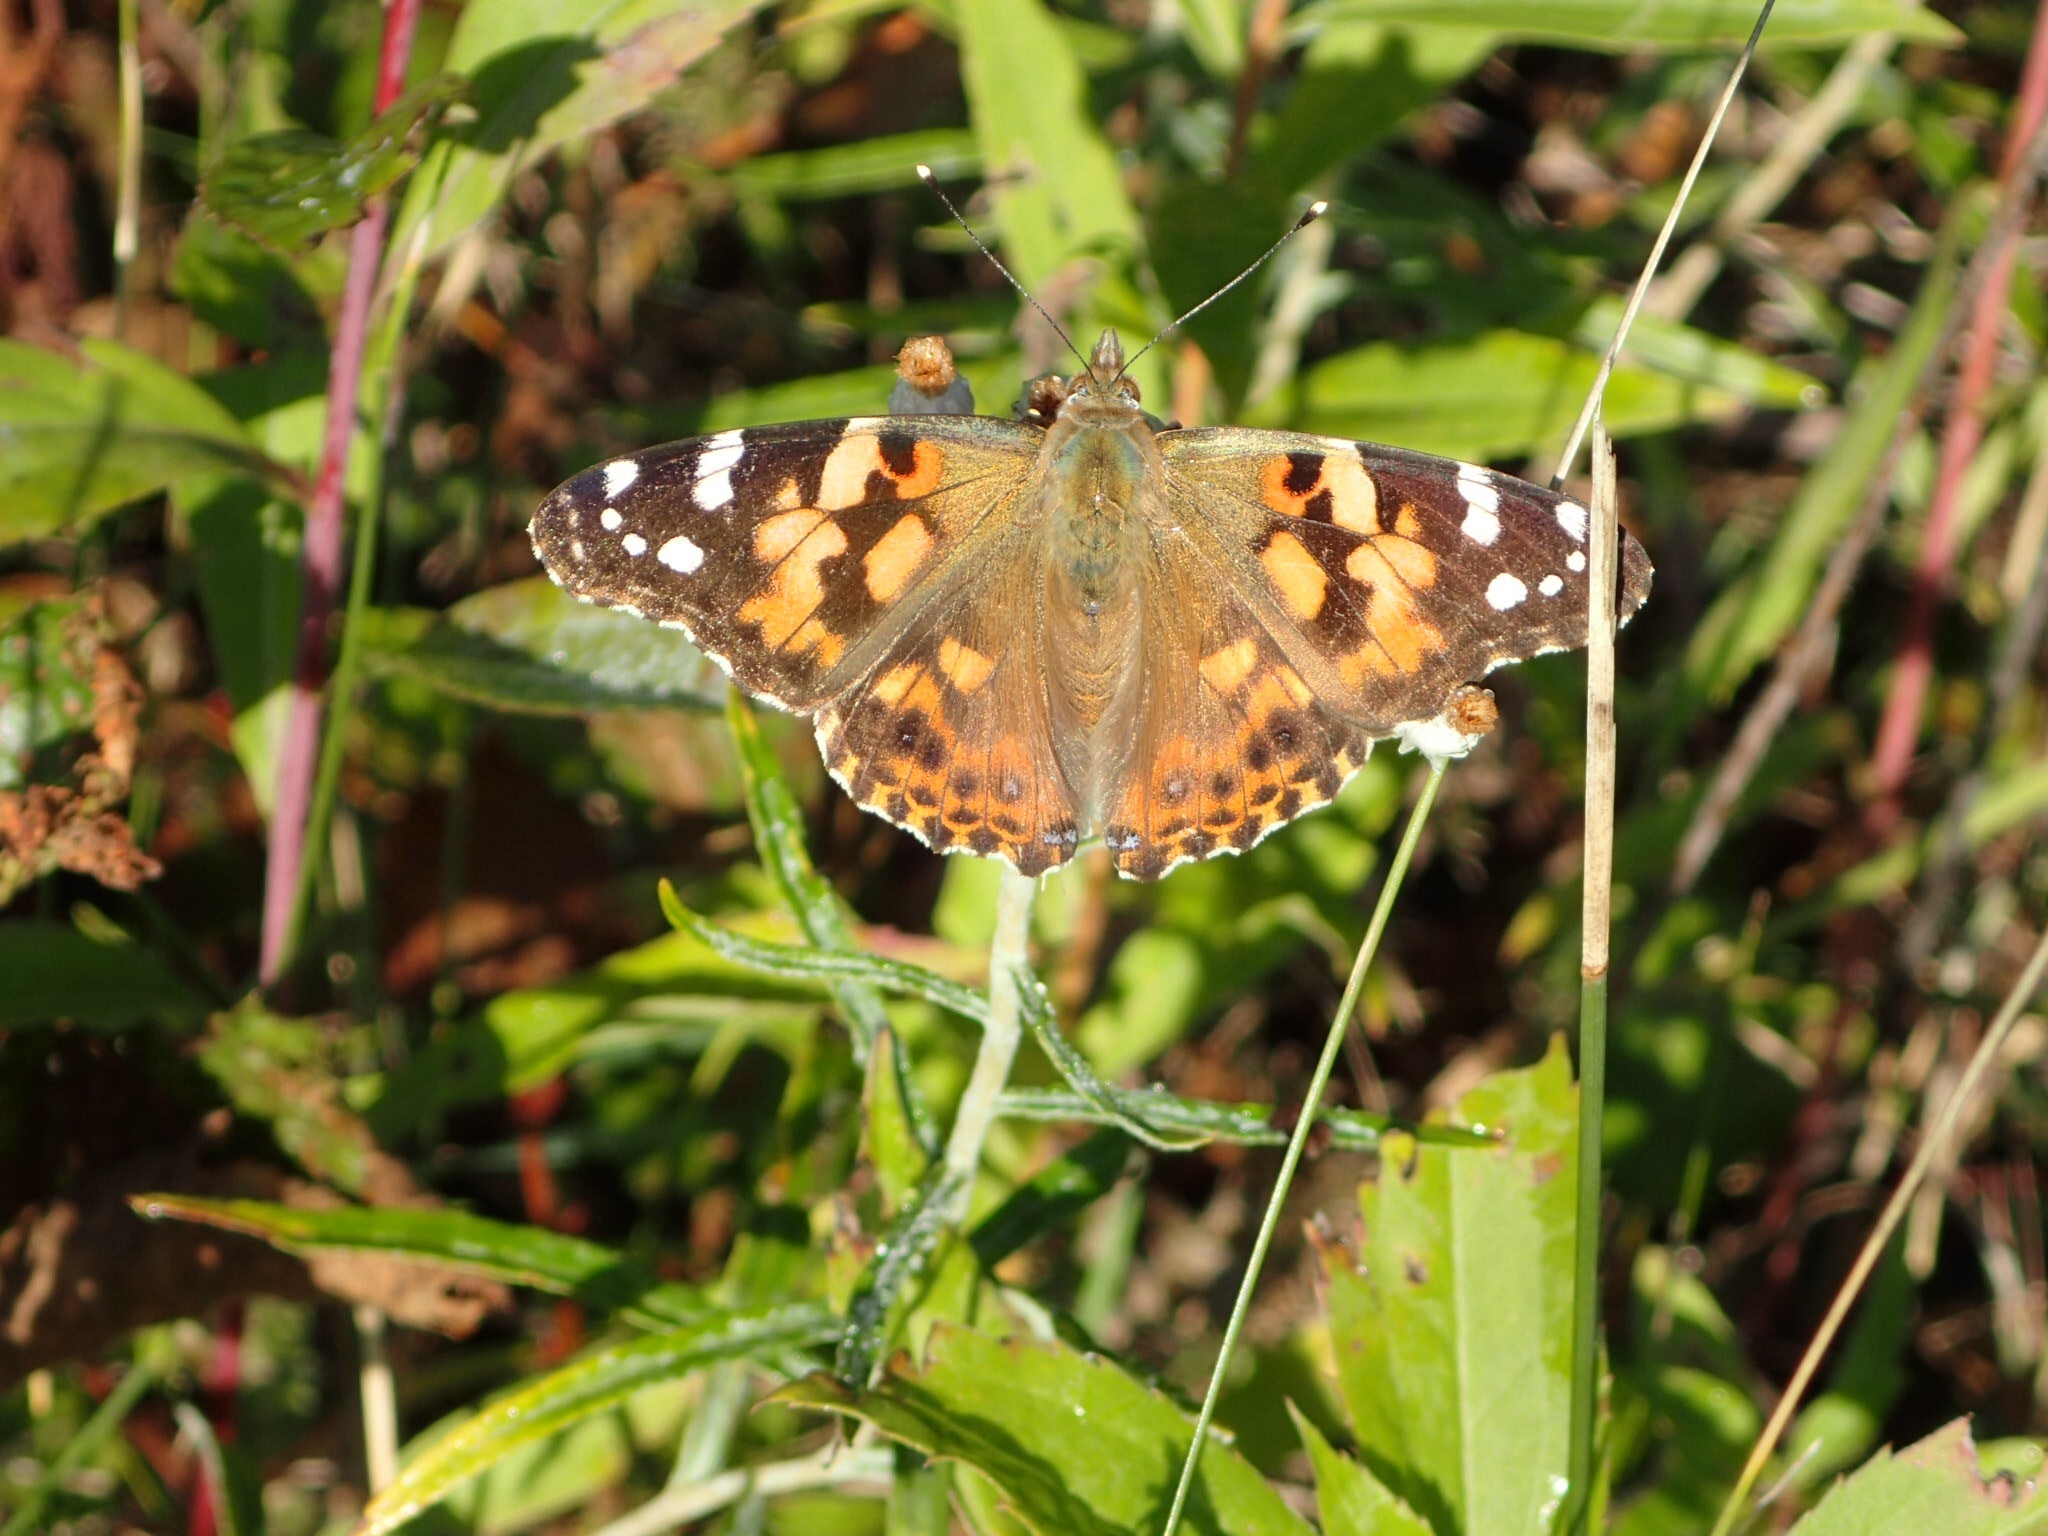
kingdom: Animalia
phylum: Arthropoda
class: Insecta
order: Lepidoptera
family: Nymphalidae
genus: Vanessa
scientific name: Vanessa cardui
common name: Painted lady
